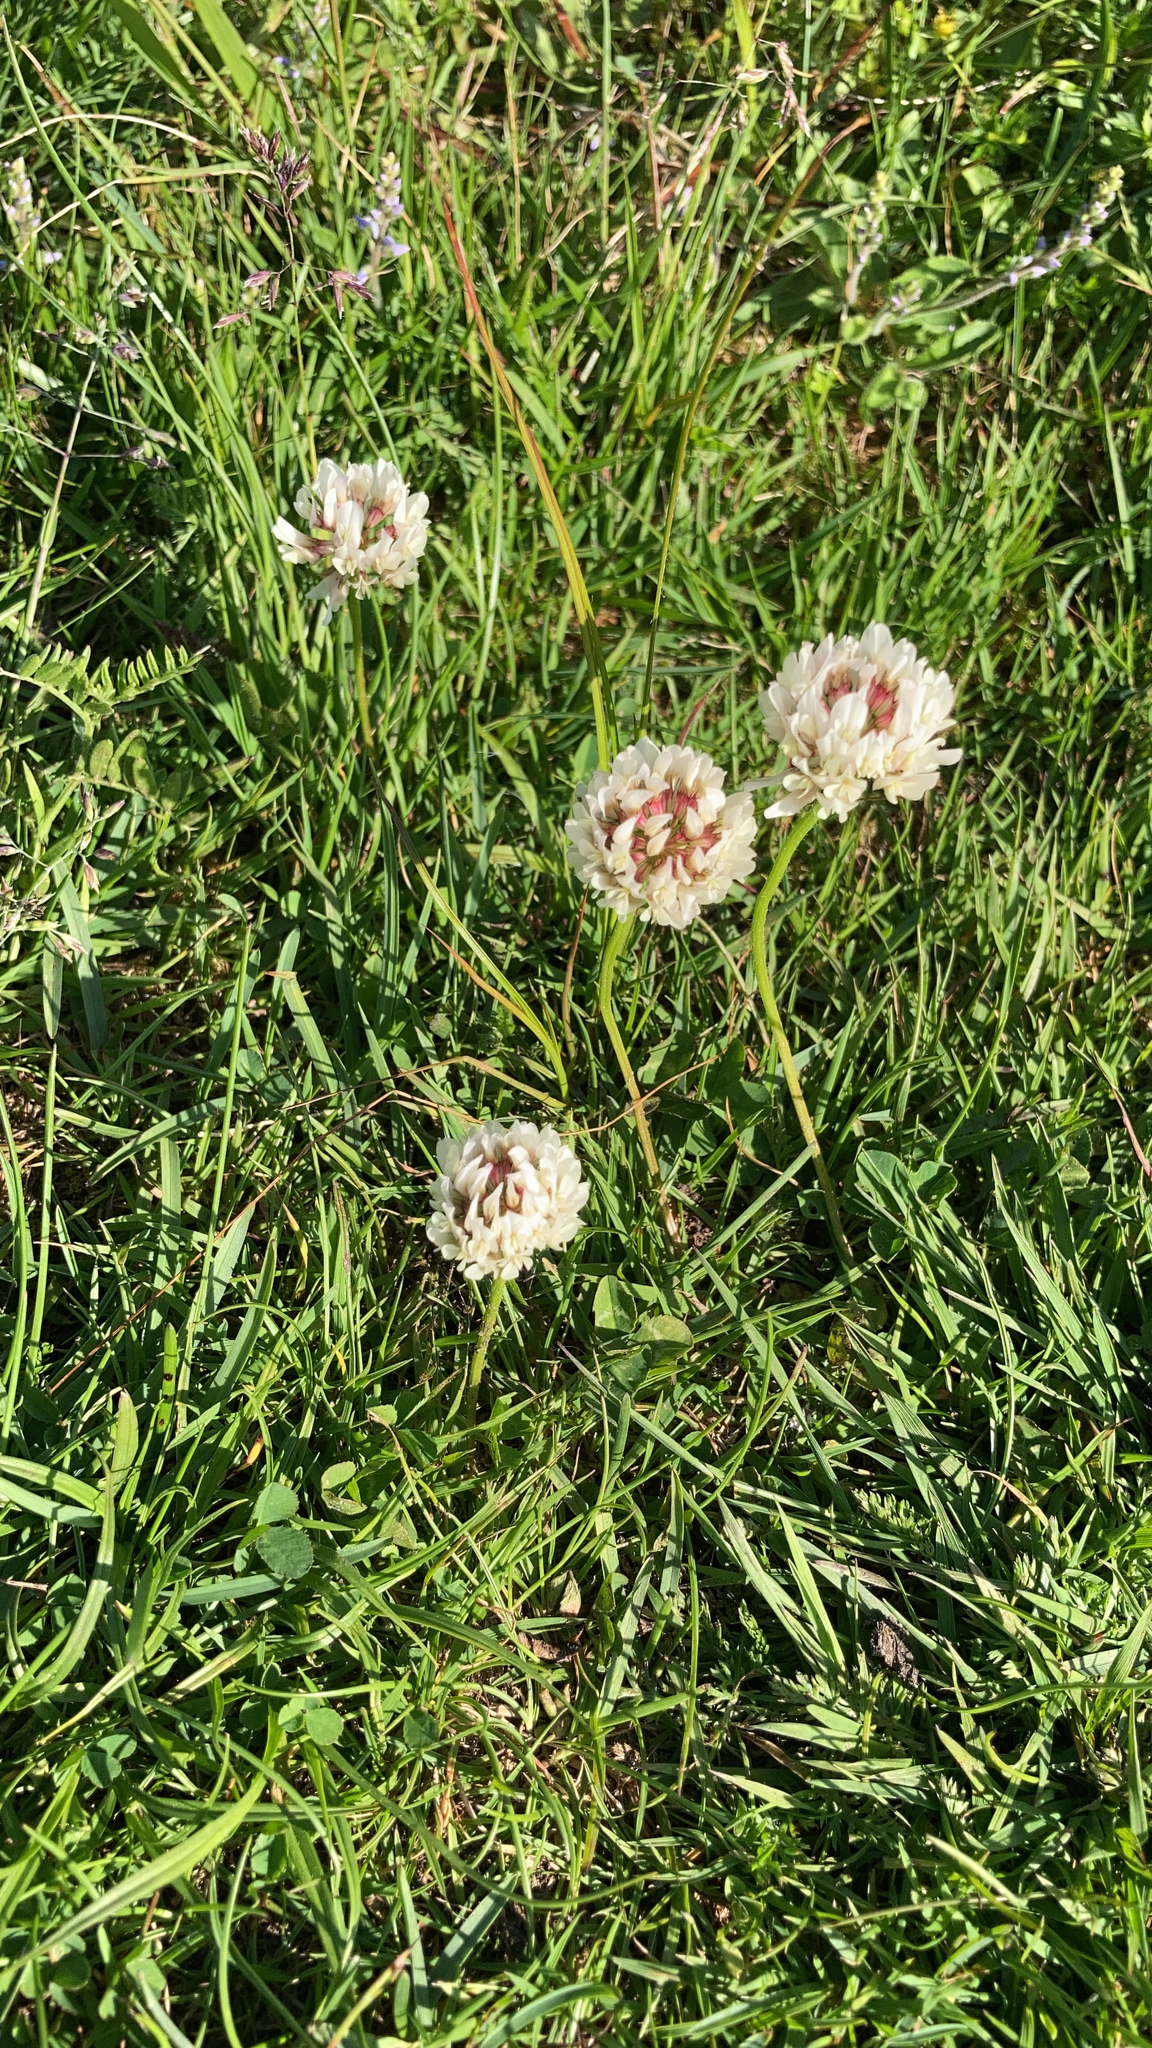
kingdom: Plantae
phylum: Tracheophyta
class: Magnoliopsida
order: Fabales
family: Fabaceae
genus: Trifolium
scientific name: Trifolium repens
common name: White clover
